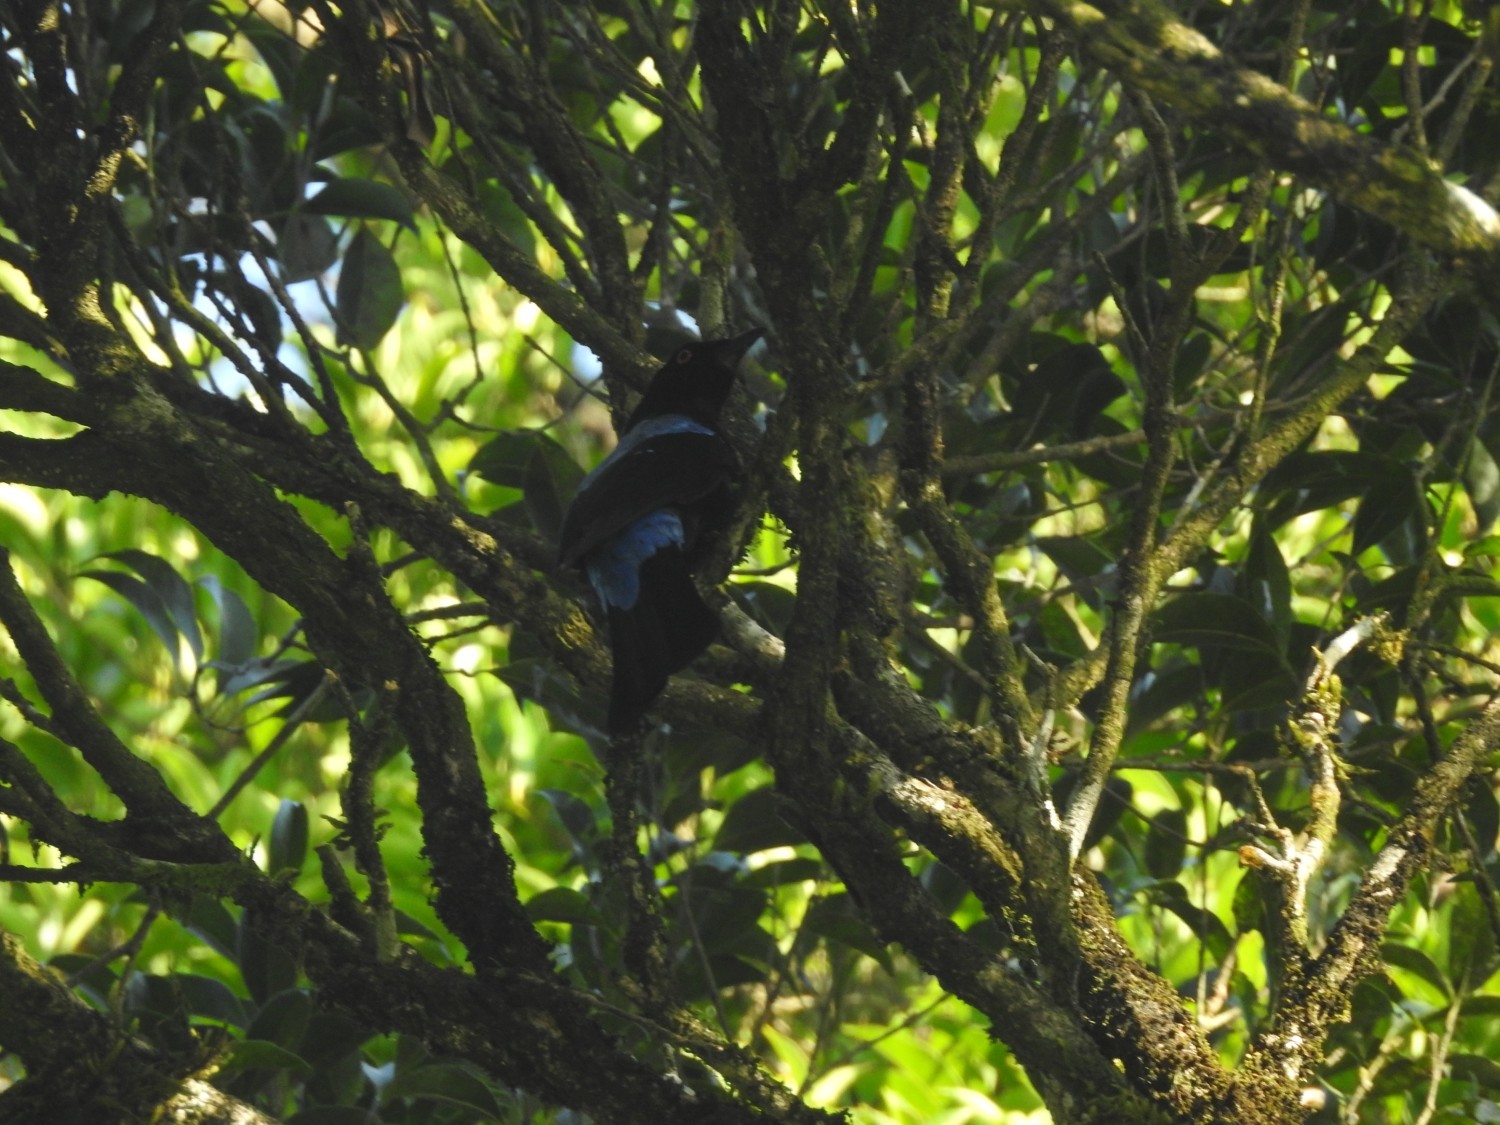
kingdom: Animalia
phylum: Chordata
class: Aves
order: Passeriformes
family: Irenidae
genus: Irena
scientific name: Irena puella
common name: Asian fairy-bluebird
